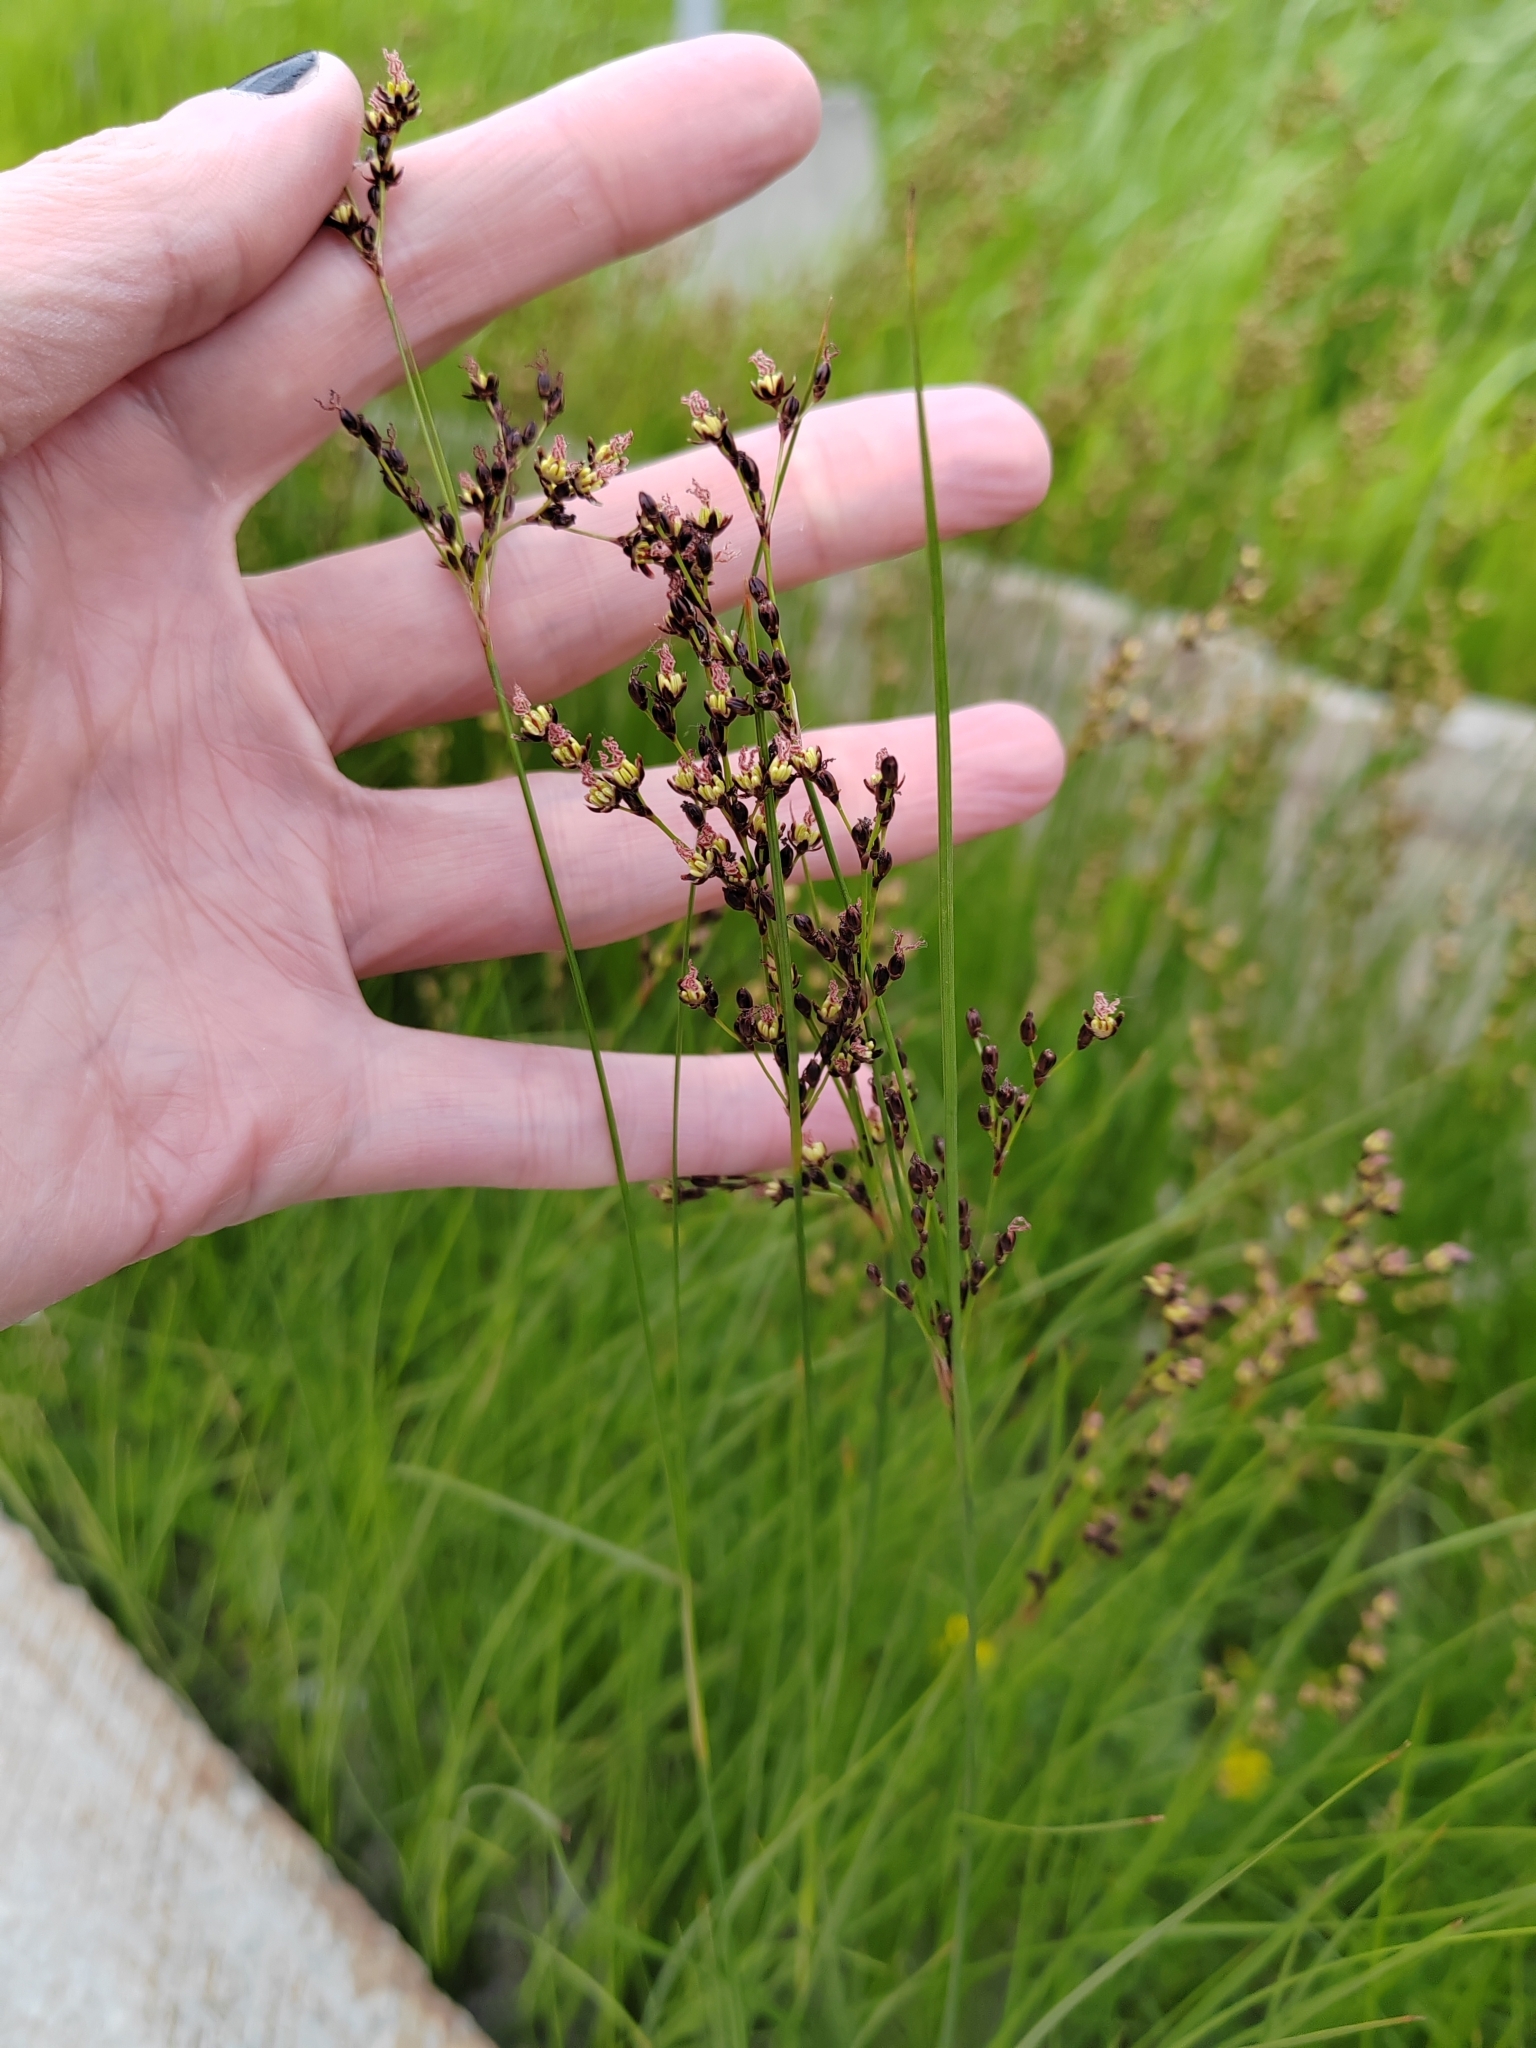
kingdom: Plantae
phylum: Tracheophyta
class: Liliopsida
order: Poales
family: Juncaceae
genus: Juncus
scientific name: Juncus compressus
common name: Round-fruited rush
